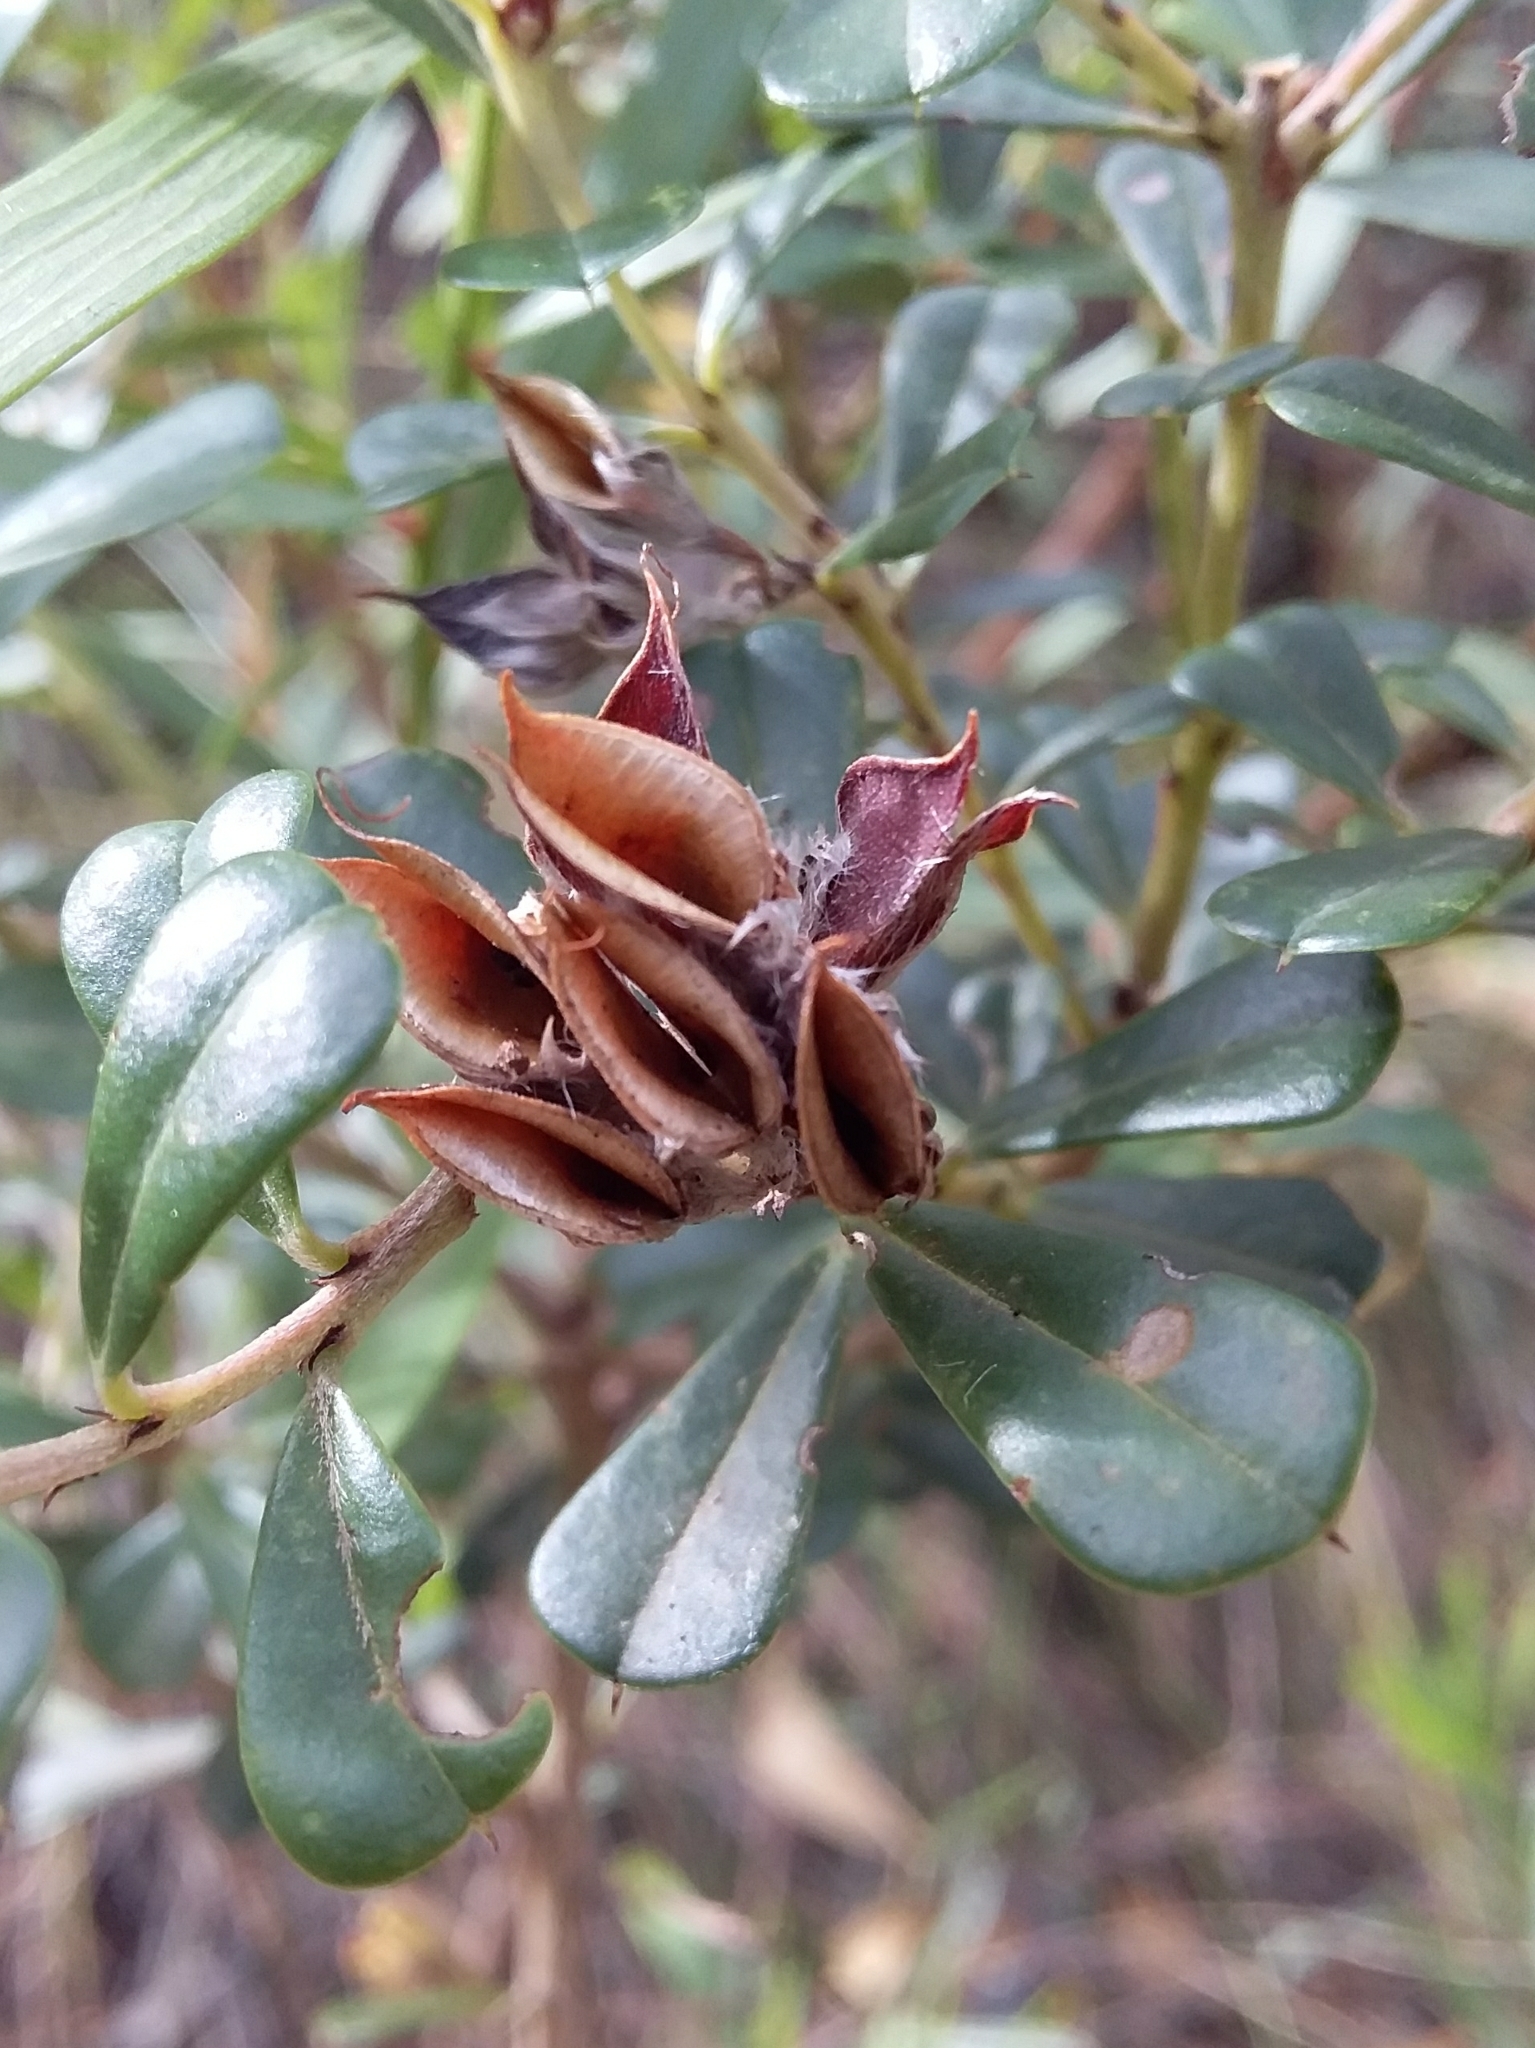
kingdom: Plantae
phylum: Tracheophyta
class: Magnoliopsida
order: Fabales
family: Fabaceae
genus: Pultenaea
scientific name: Pultenaea daphnoides
